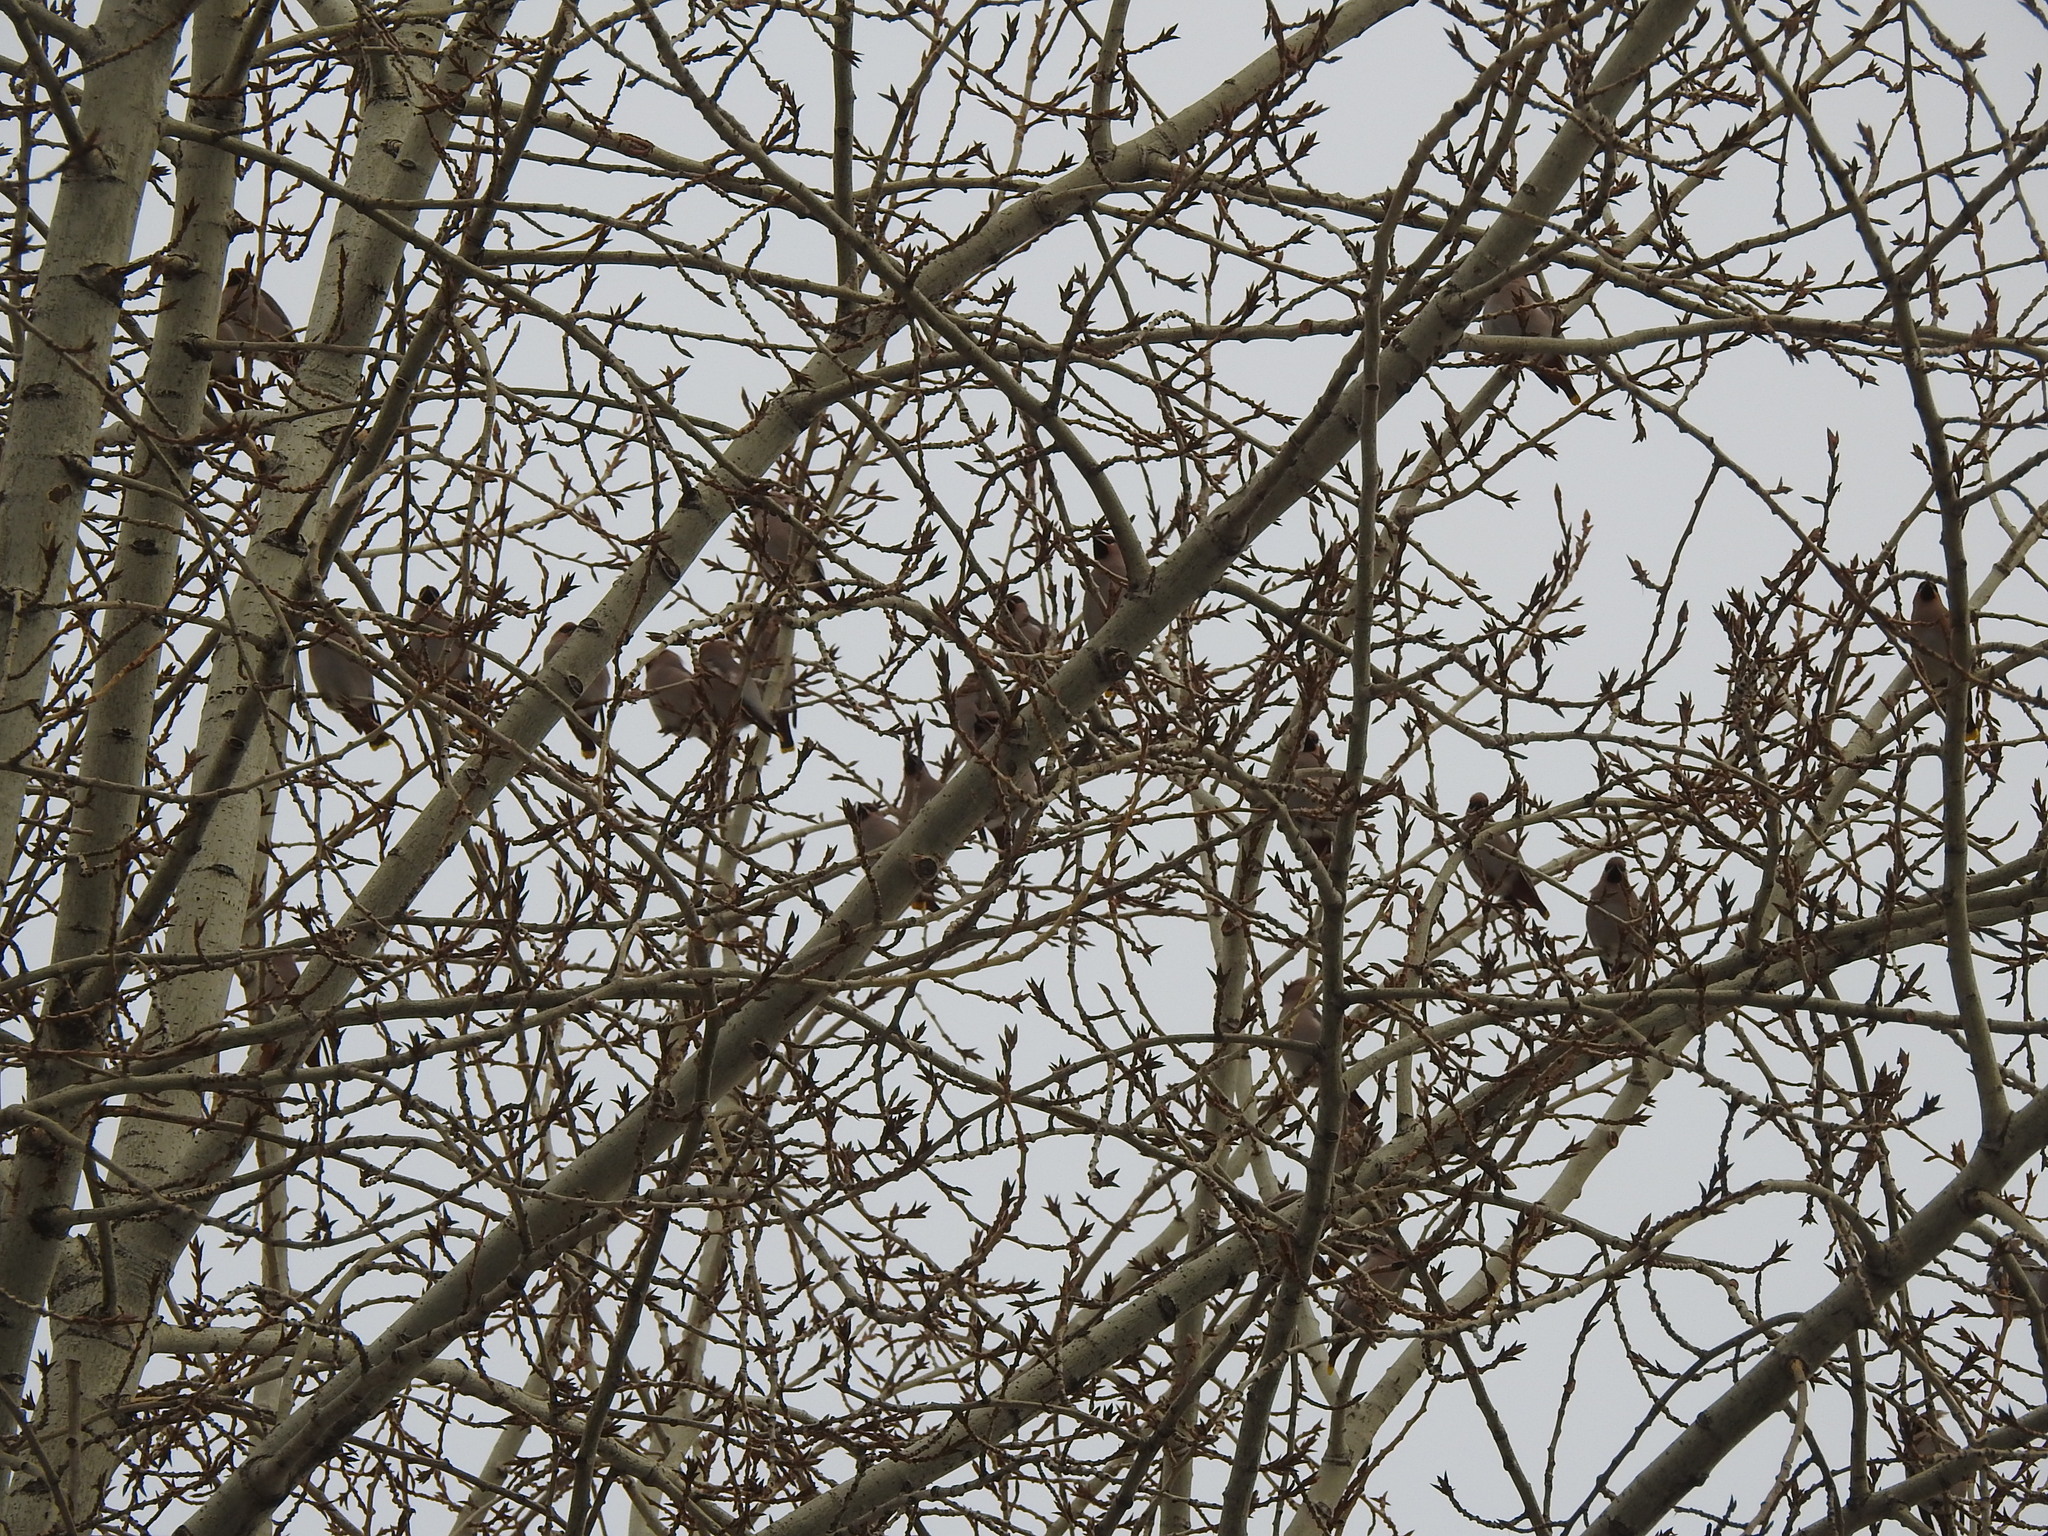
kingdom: Animalia
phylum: Chordata
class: Aves
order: Passeriformes
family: Bombycillidae
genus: Bombycilla
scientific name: Bombycilla garrulus
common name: Bohemian waxwing
